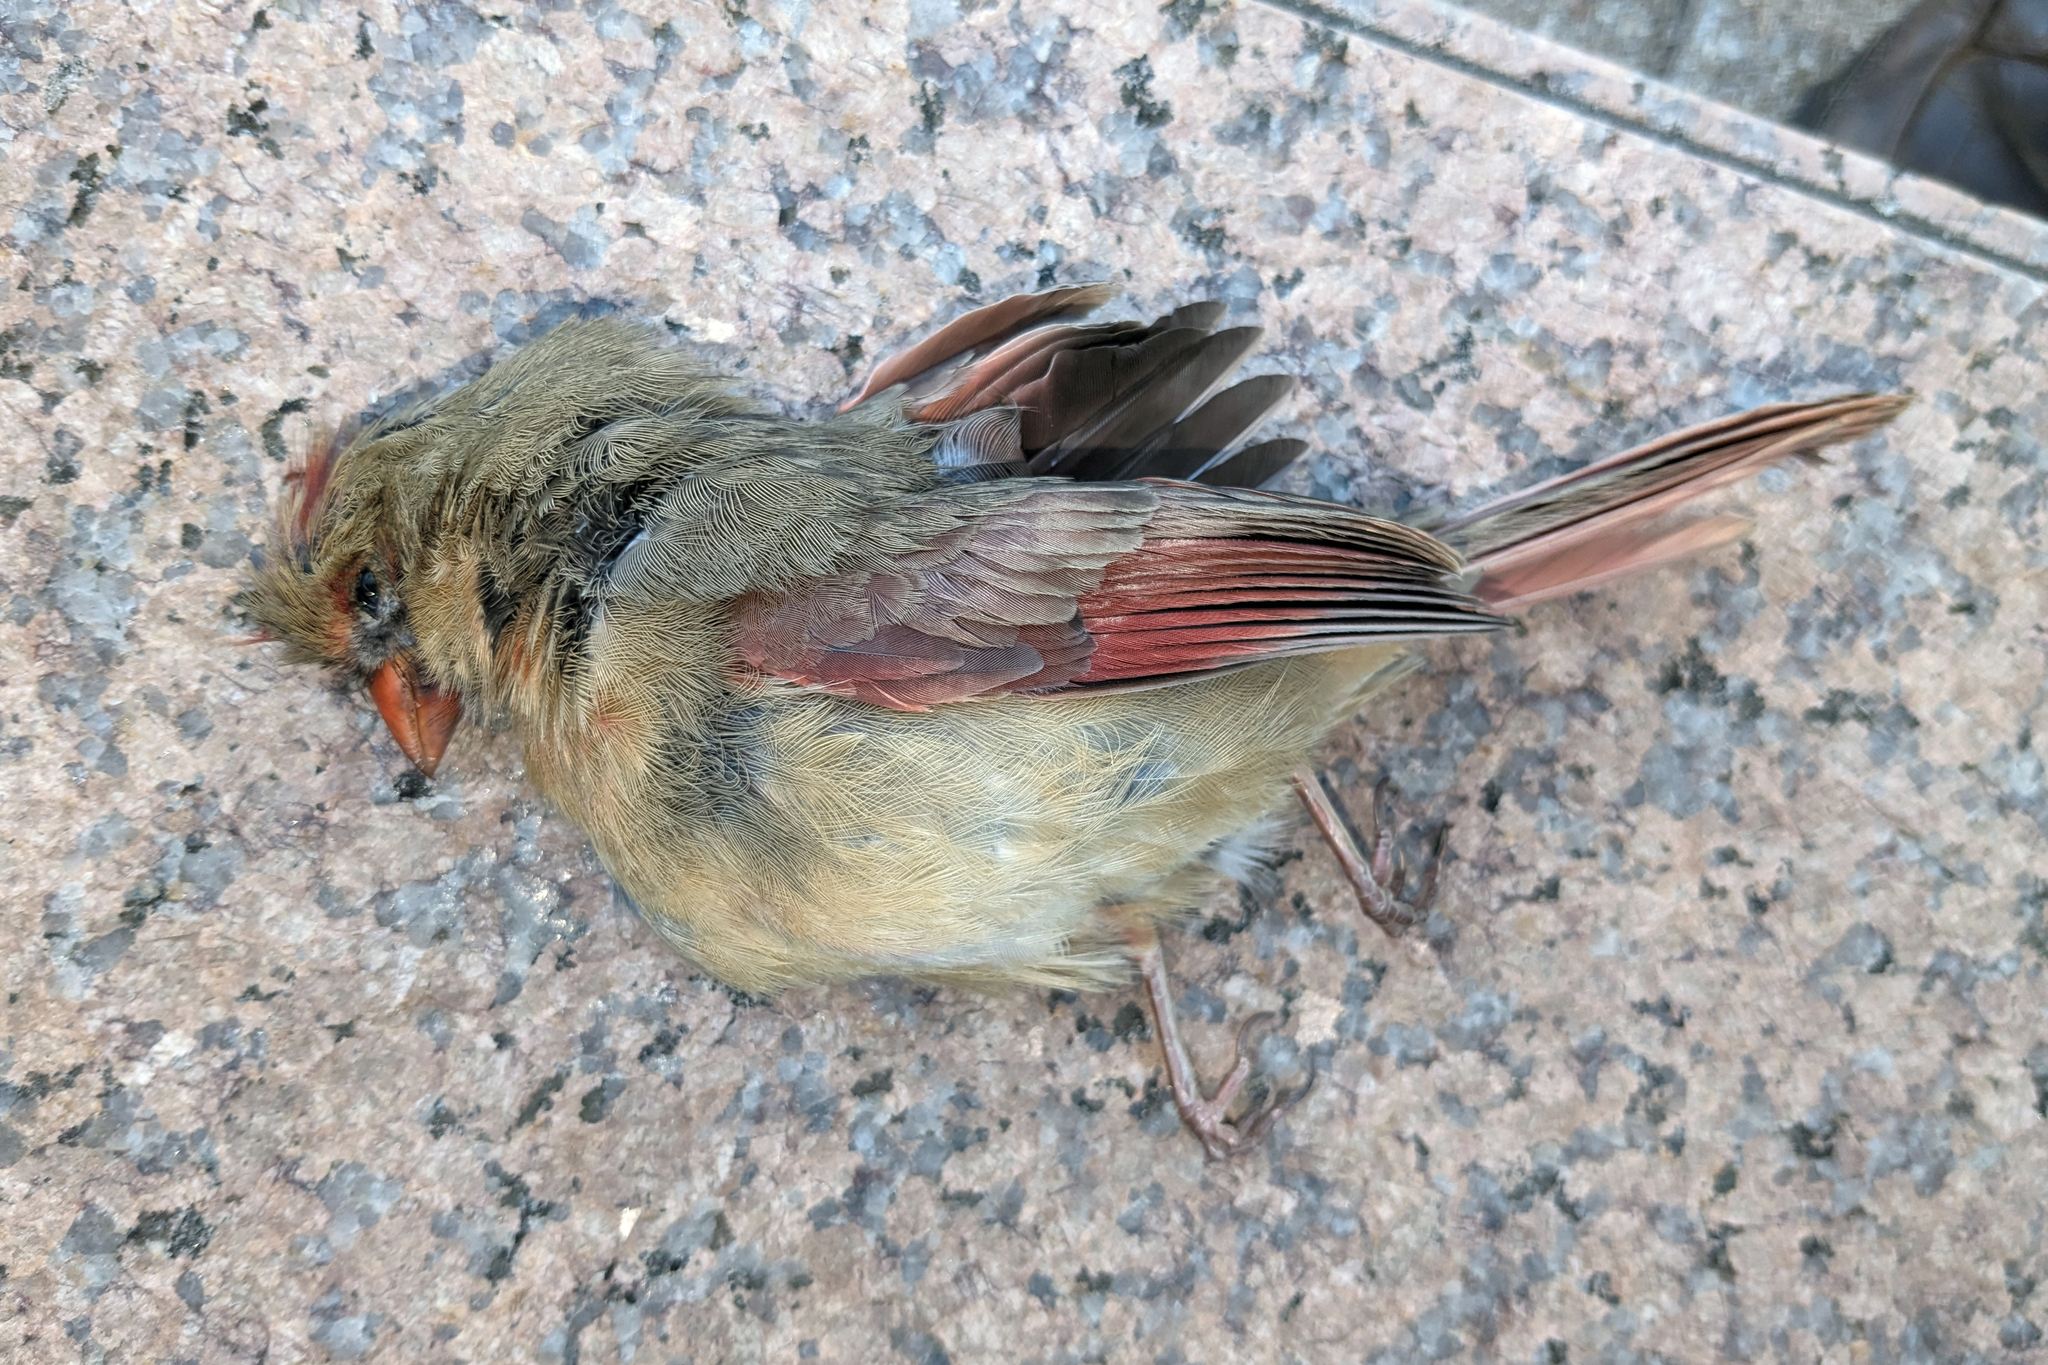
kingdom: Animalia
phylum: Chordata
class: Aves
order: Passeriformes
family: Cardinalidae
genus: Cardinalis
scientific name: Cardinalis cardinalis
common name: Northern cardinal
